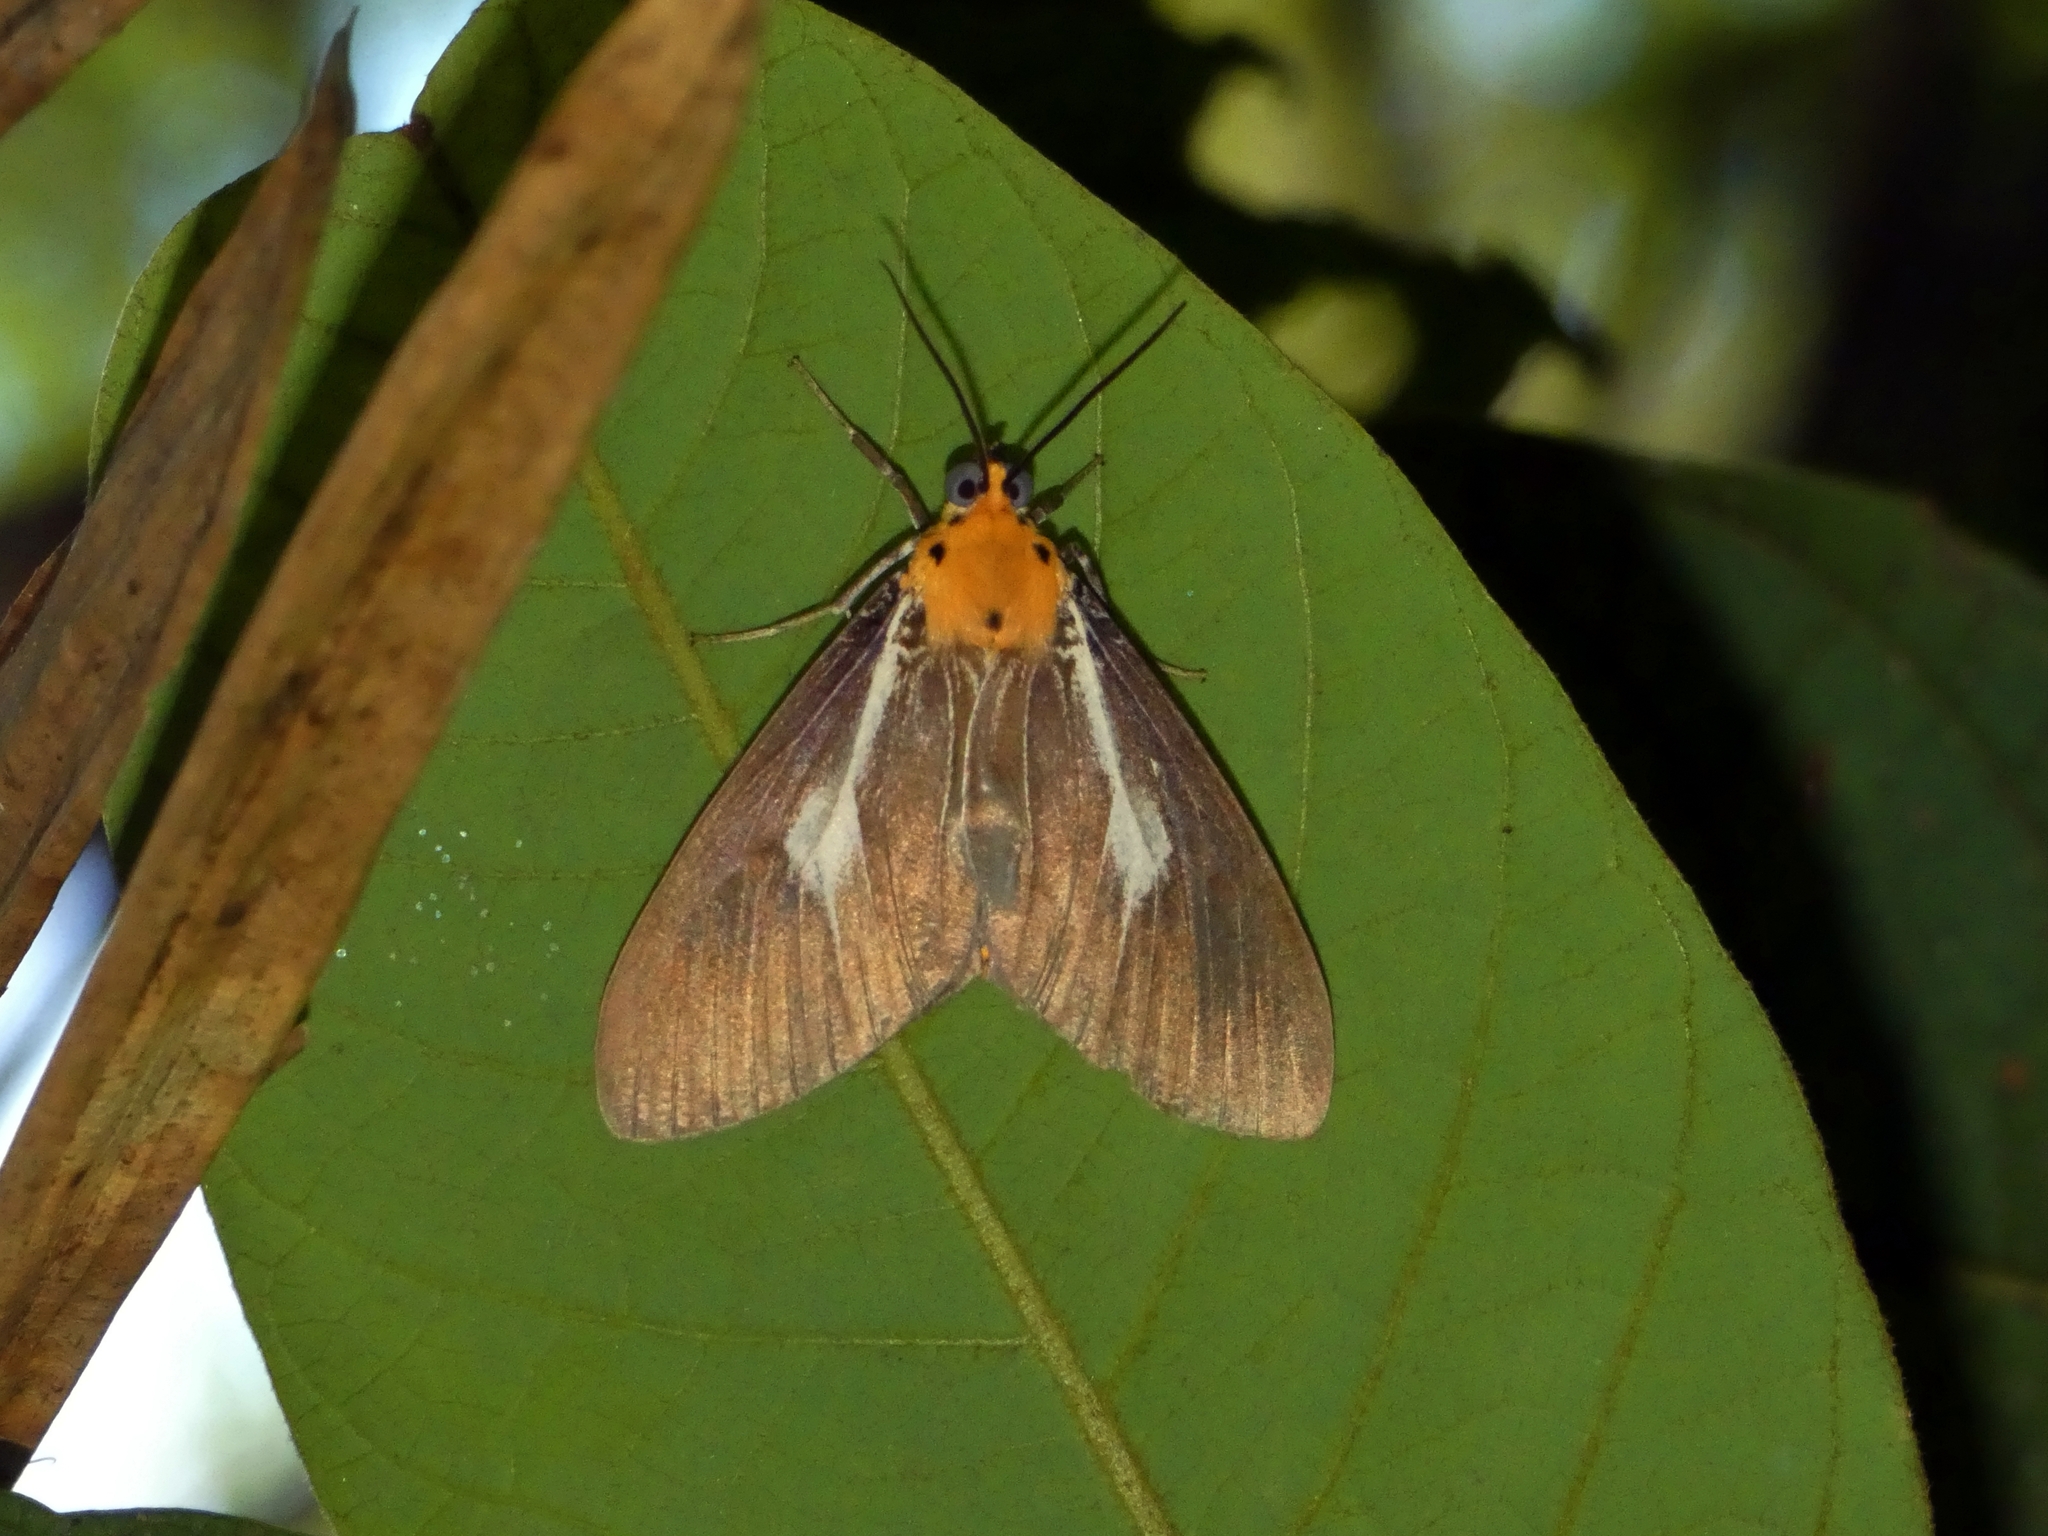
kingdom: Animalia
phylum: Arthropoda
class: Insecta
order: Lepidoptera
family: Erebidae
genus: Asota
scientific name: Asota heliconia
